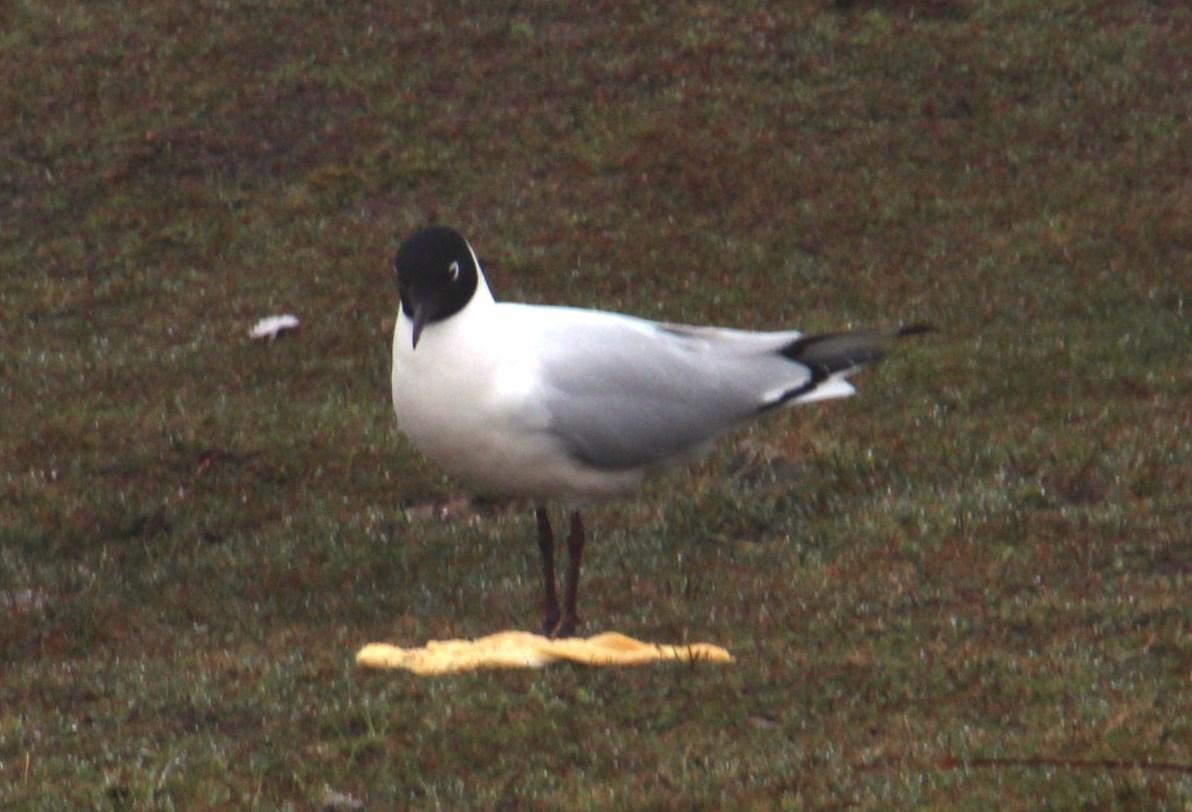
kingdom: Animalia
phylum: Chordata
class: Aves
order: Charadriiformes
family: Laridae
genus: Chroicocephalus
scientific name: Chroicocephalus serranus
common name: Andean gull
